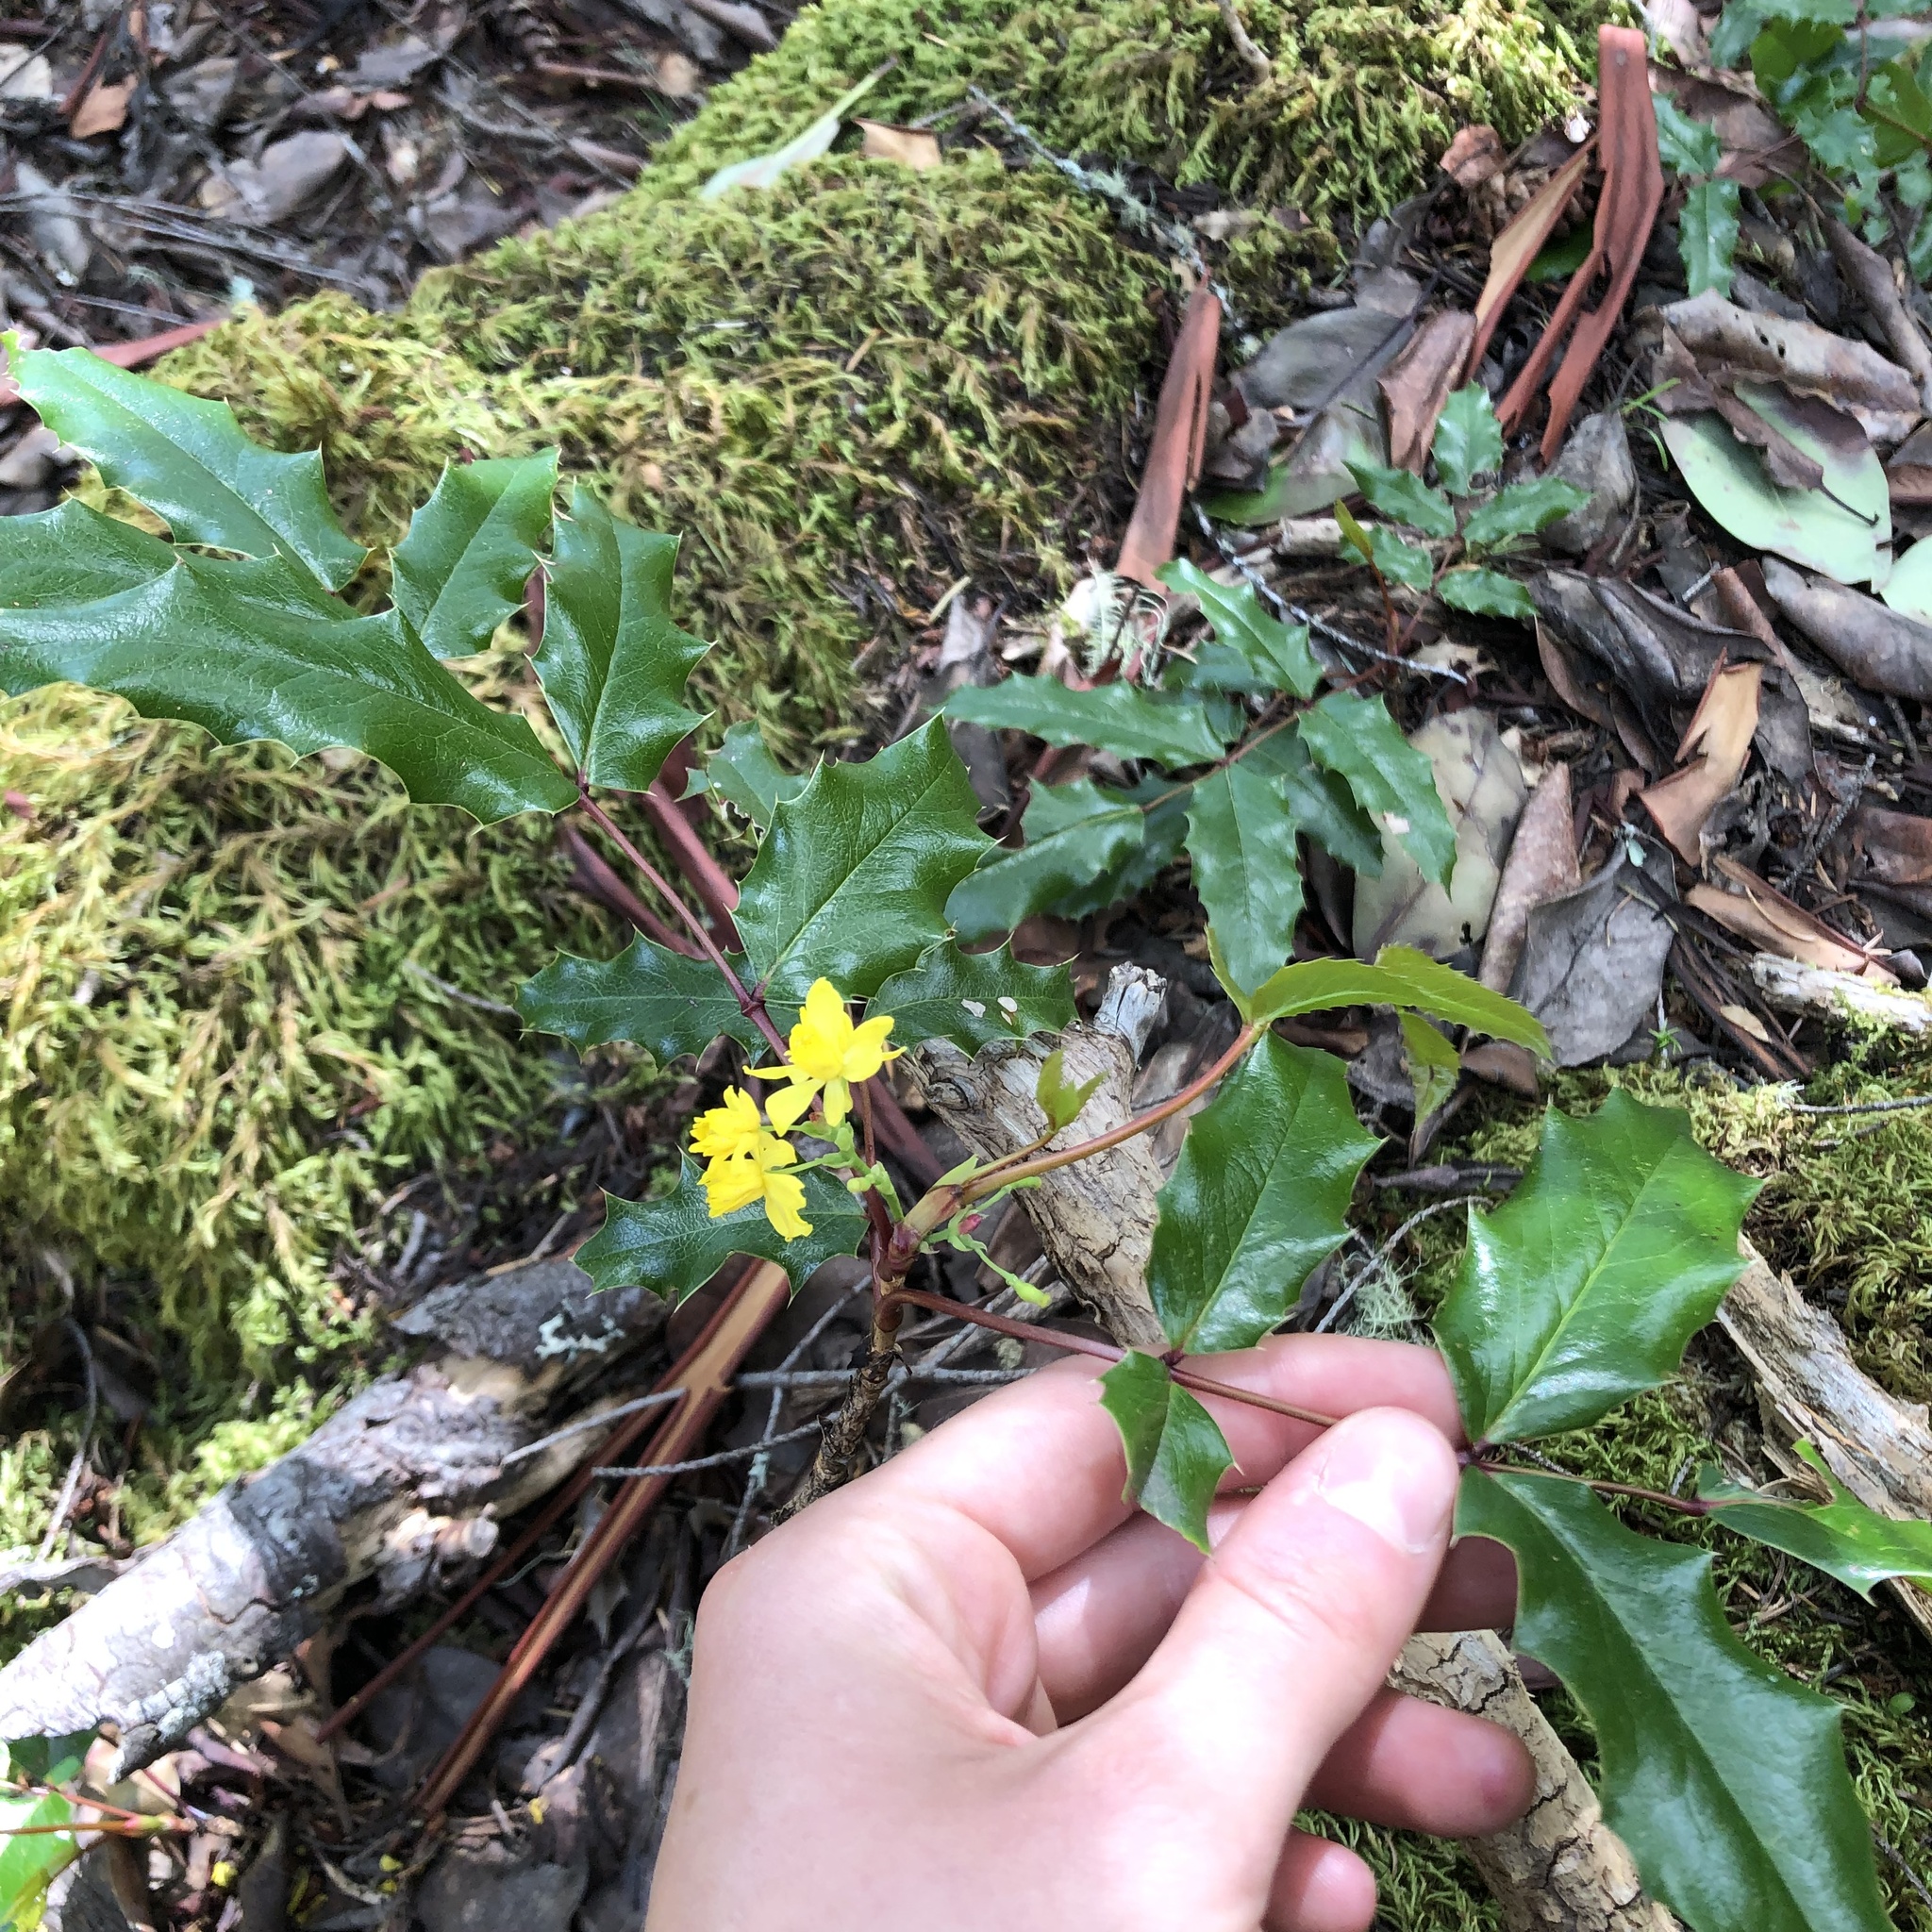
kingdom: Plantae
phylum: Tracheophyta
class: Magnoliopsida
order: Ranunculales
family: Berberidaceae
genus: Mahonia
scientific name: Mahonia aquifolium
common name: Oregon-grape
